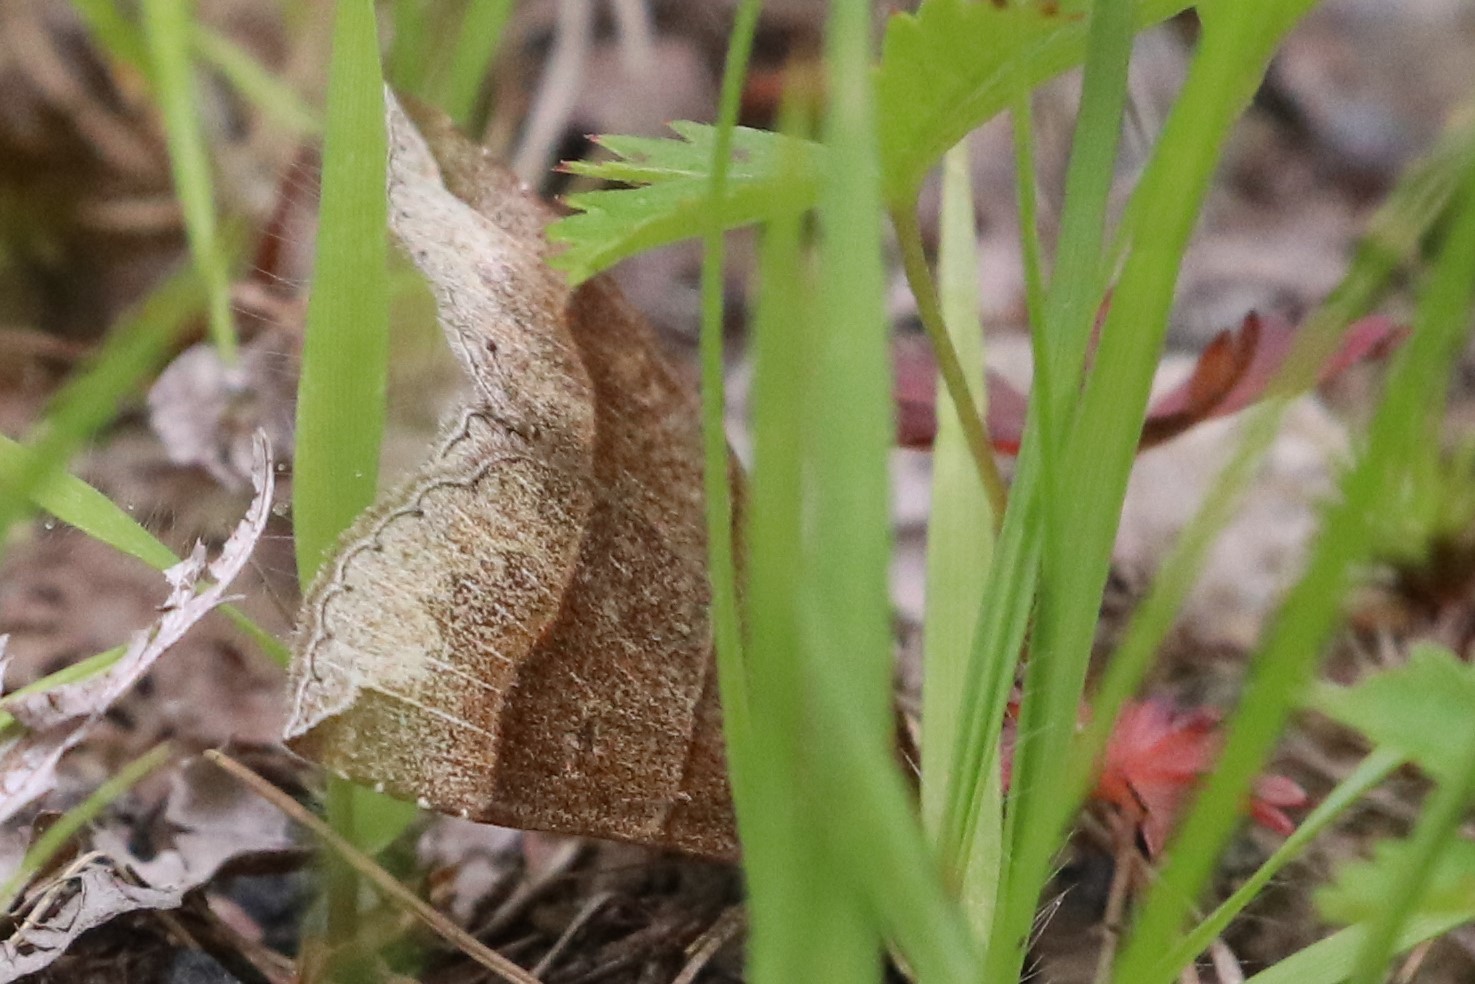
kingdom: Animalia
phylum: Arthropoda
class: Insecta
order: Lepidoptera
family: Erebidae
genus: Parallelia
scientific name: Parallelia bistriaris
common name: Maple looper moth
